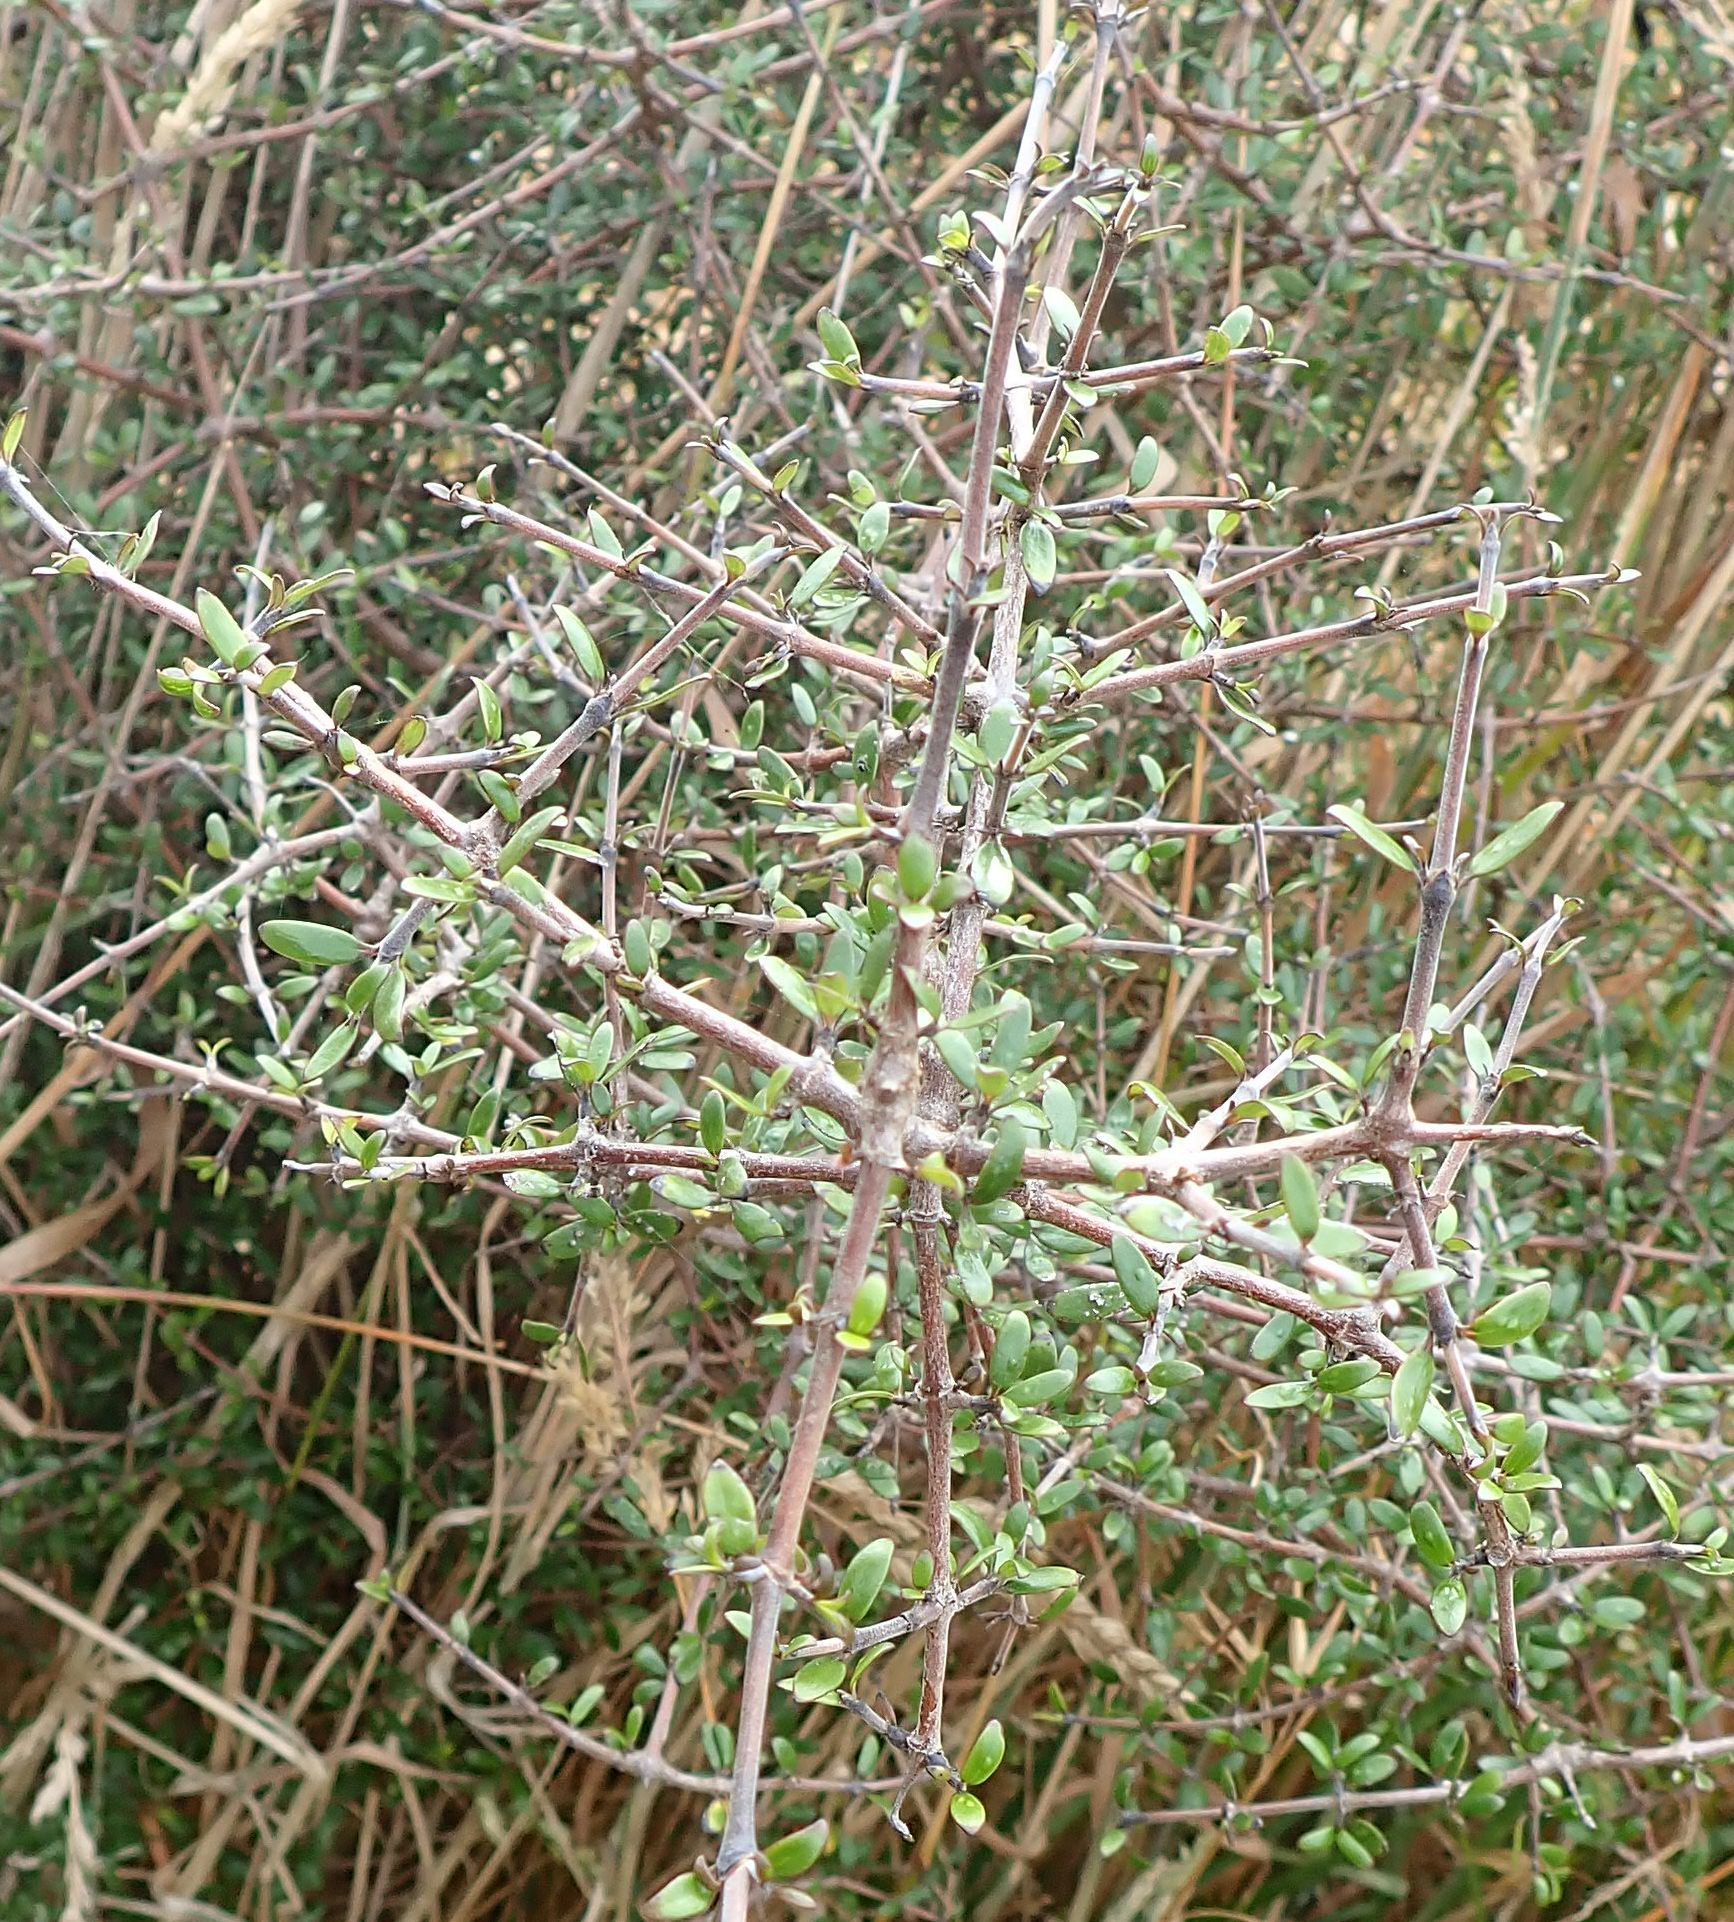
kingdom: Plantae
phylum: Tracheophyta
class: Magnoliopsida
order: Gentianales
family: Rubiaceae
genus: Coprosma
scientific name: Coprosma propinqua
